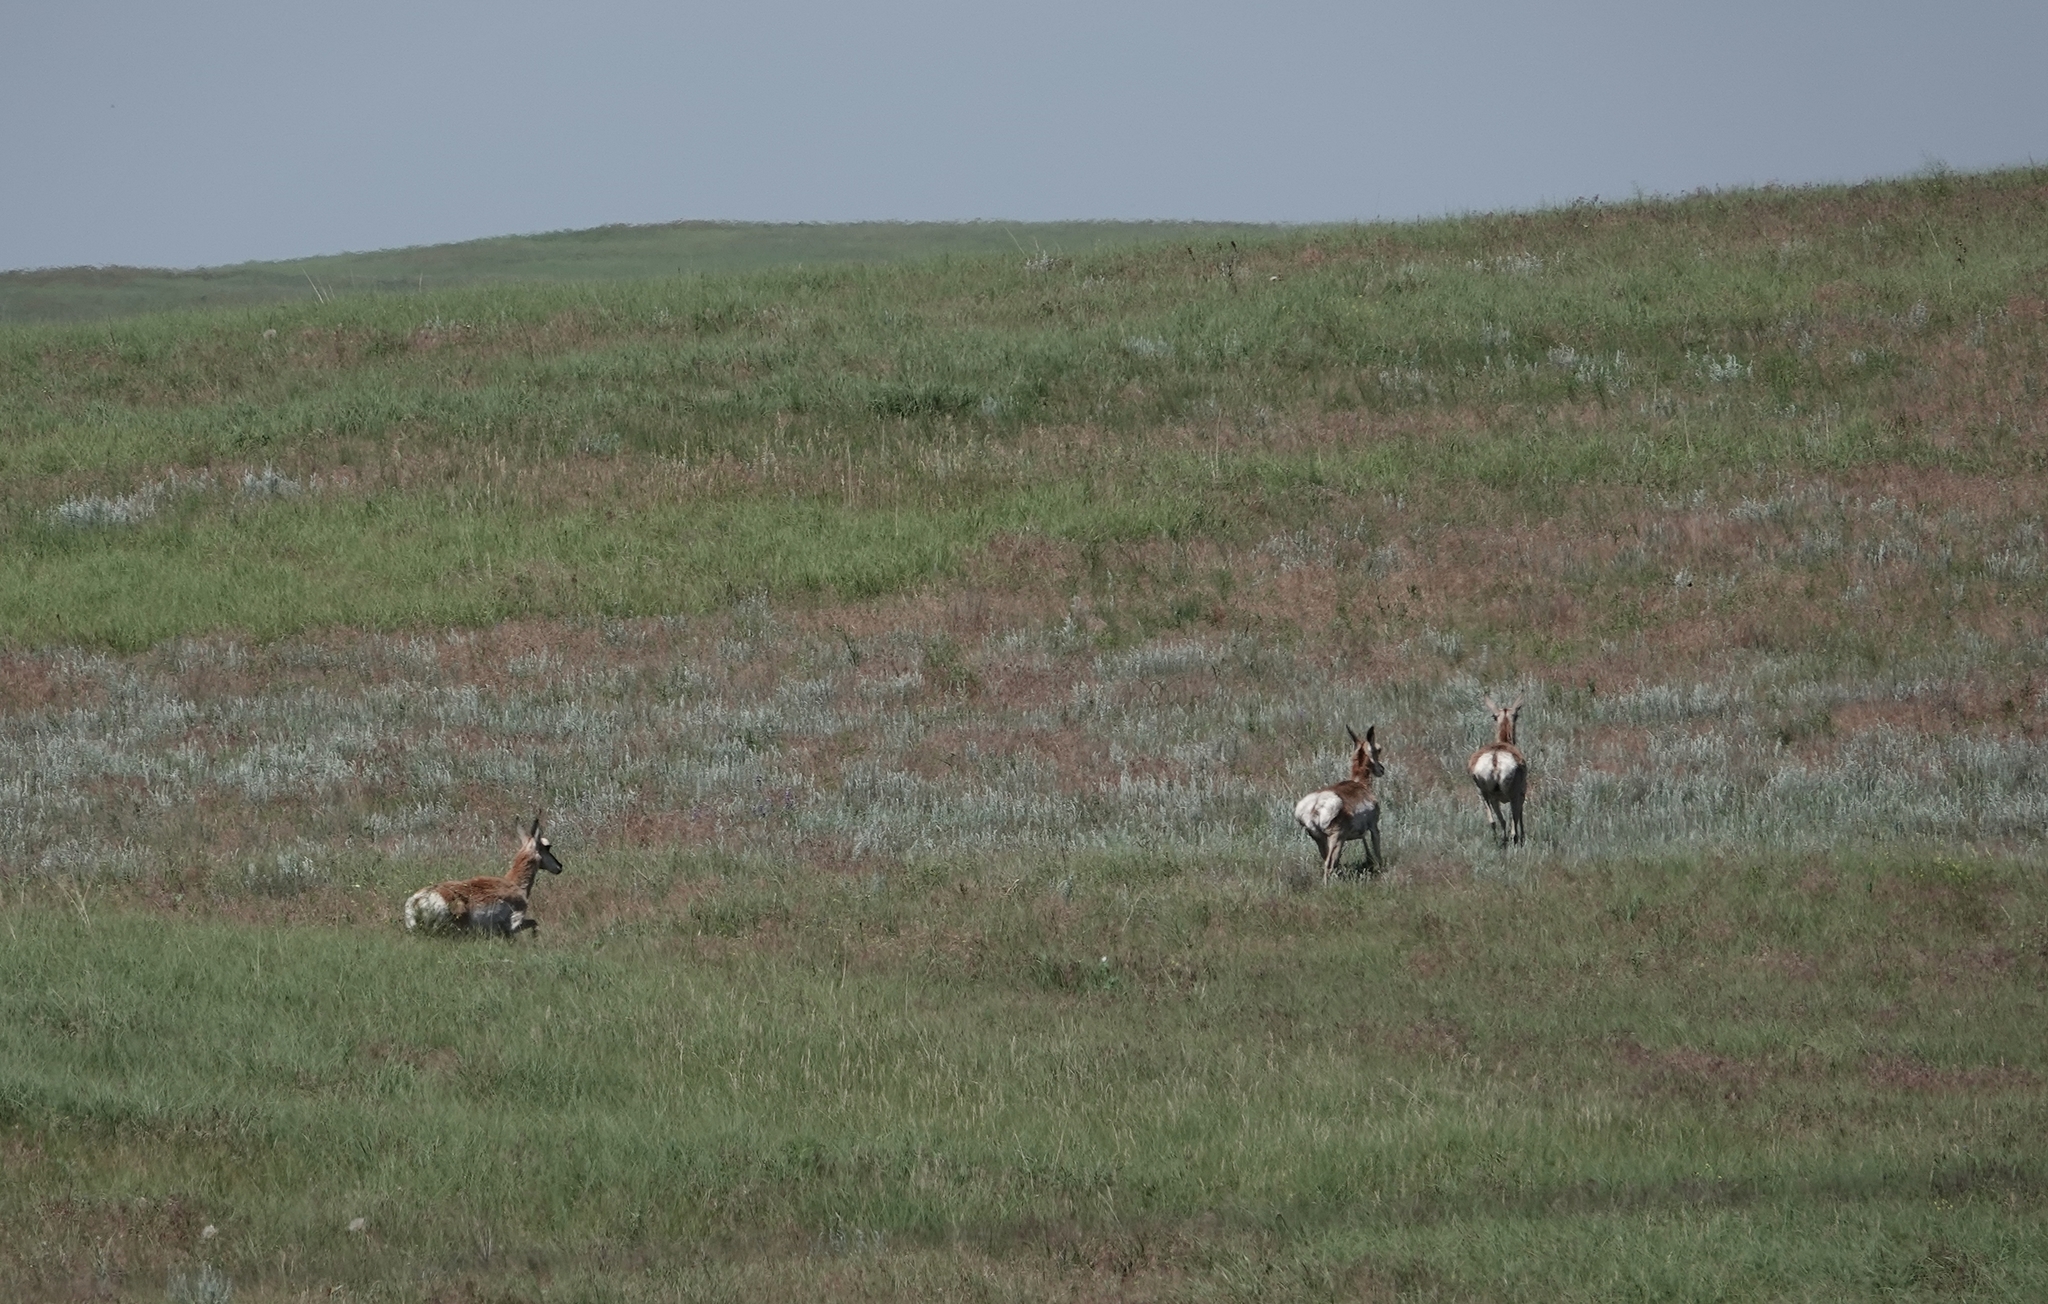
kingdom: Animalia
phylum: Chordata
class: Mammalia
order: Artiodactyla
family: Antilocapridae
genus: Antilocapra
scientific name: Antilocapra americana
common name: Pronghorn
